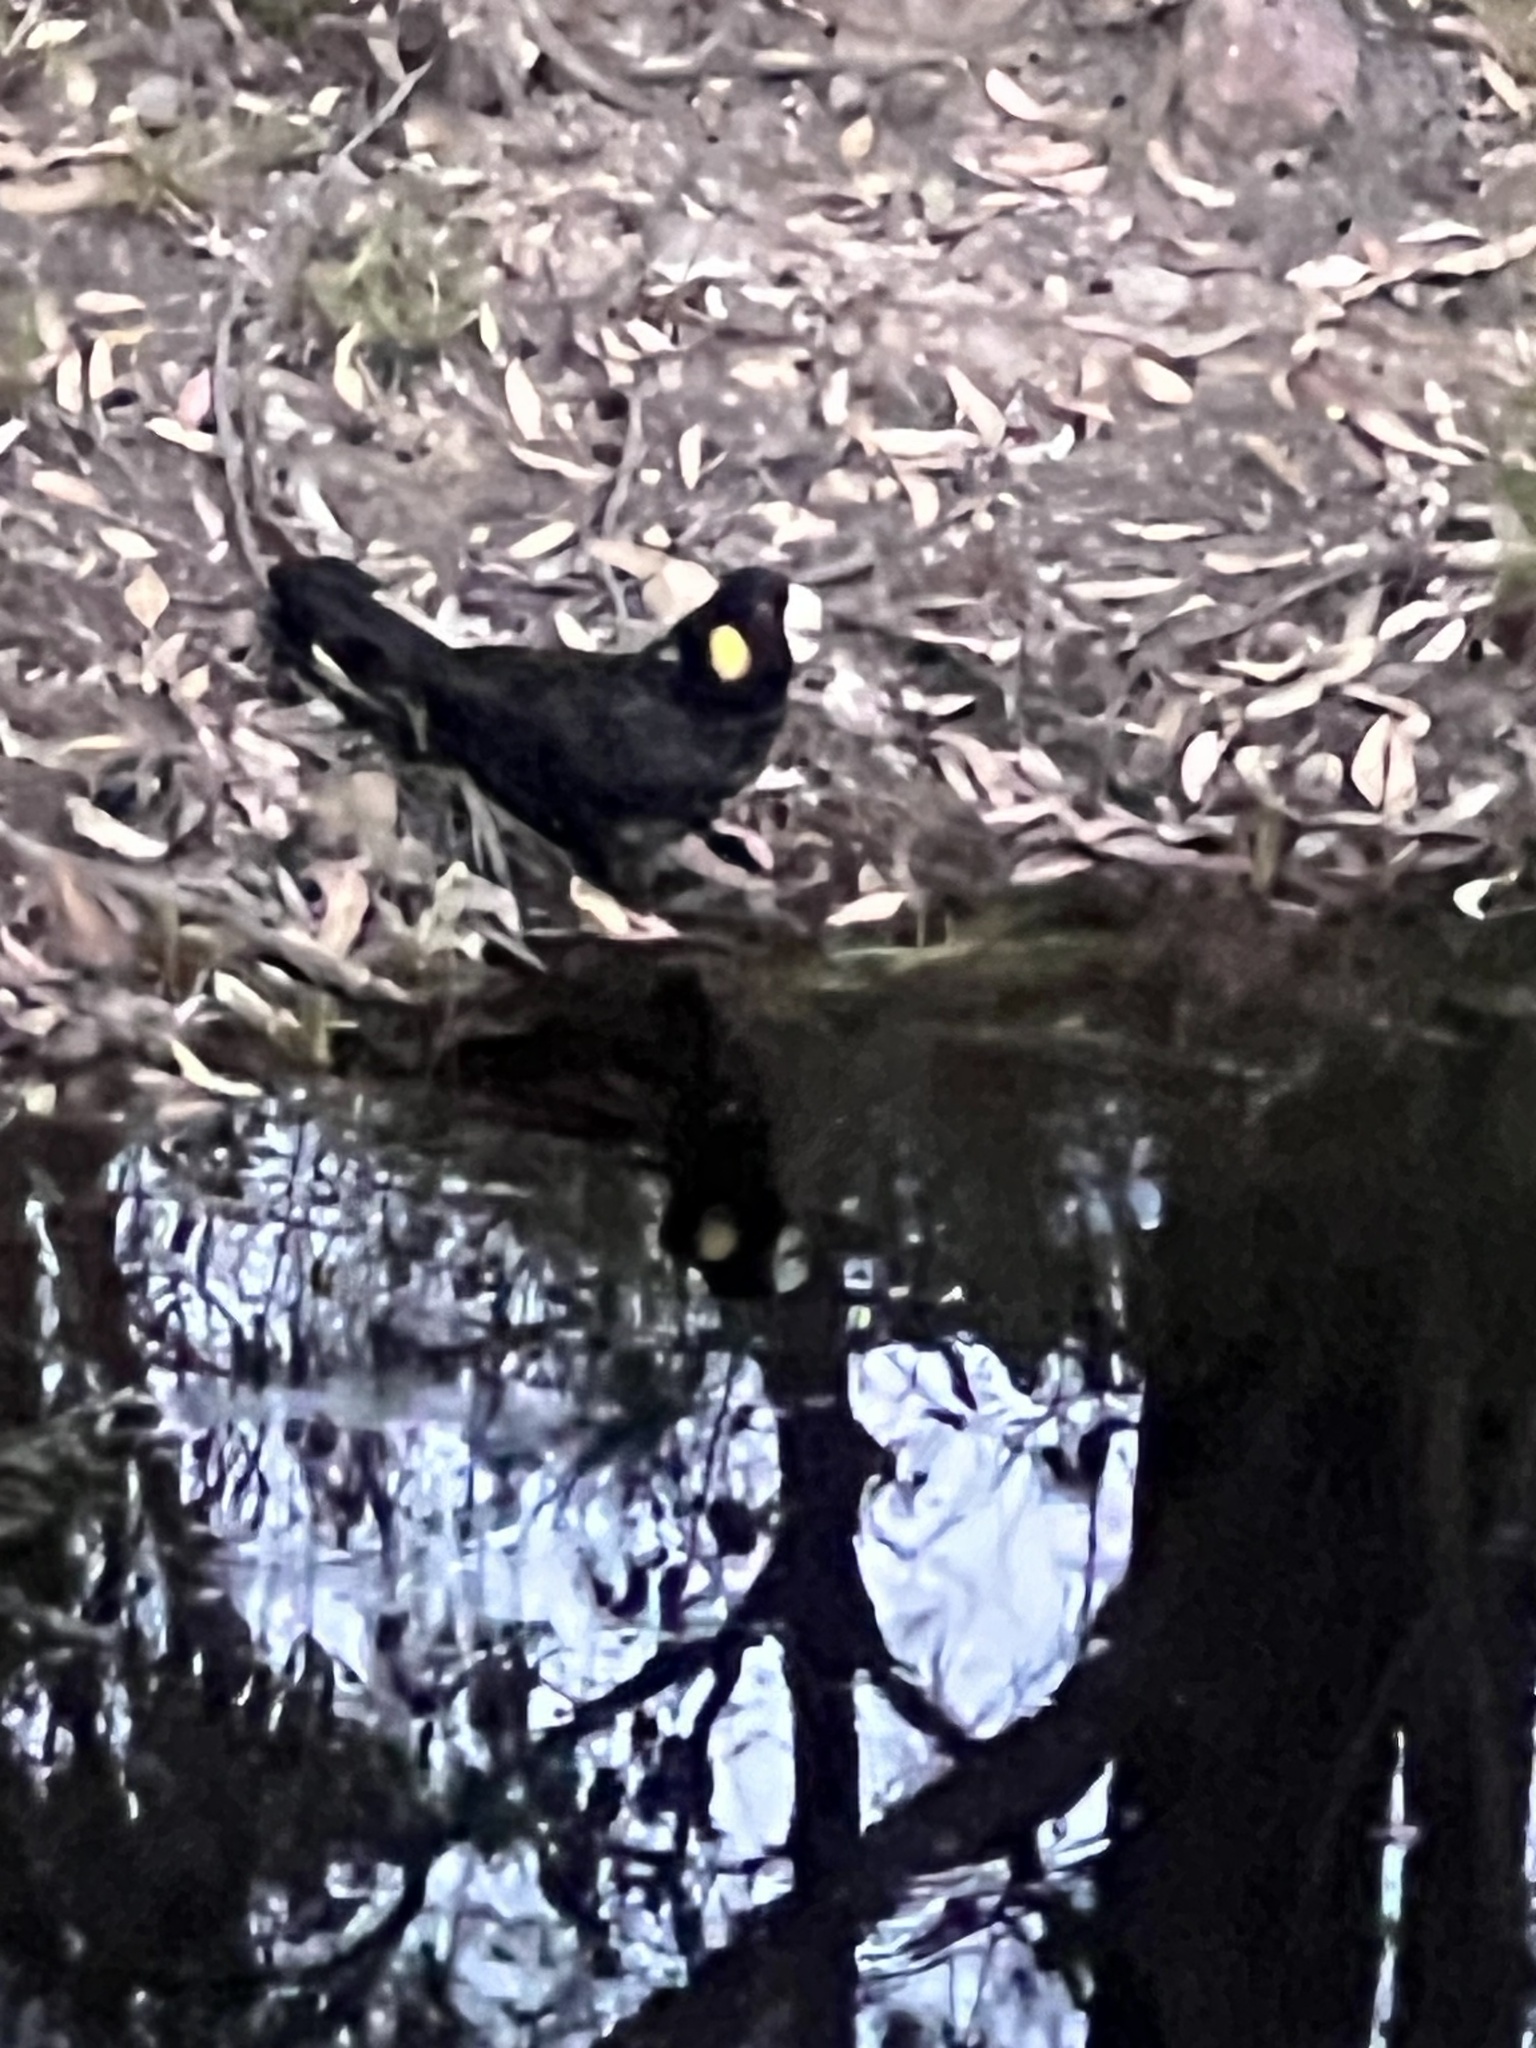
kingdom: Animalia
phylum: Chordata
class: Aves
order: Psittaciformes
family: Cacatuidae
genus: Zanda
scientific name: Zanda funerea
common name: Yellow-tailed black-cockatoo
